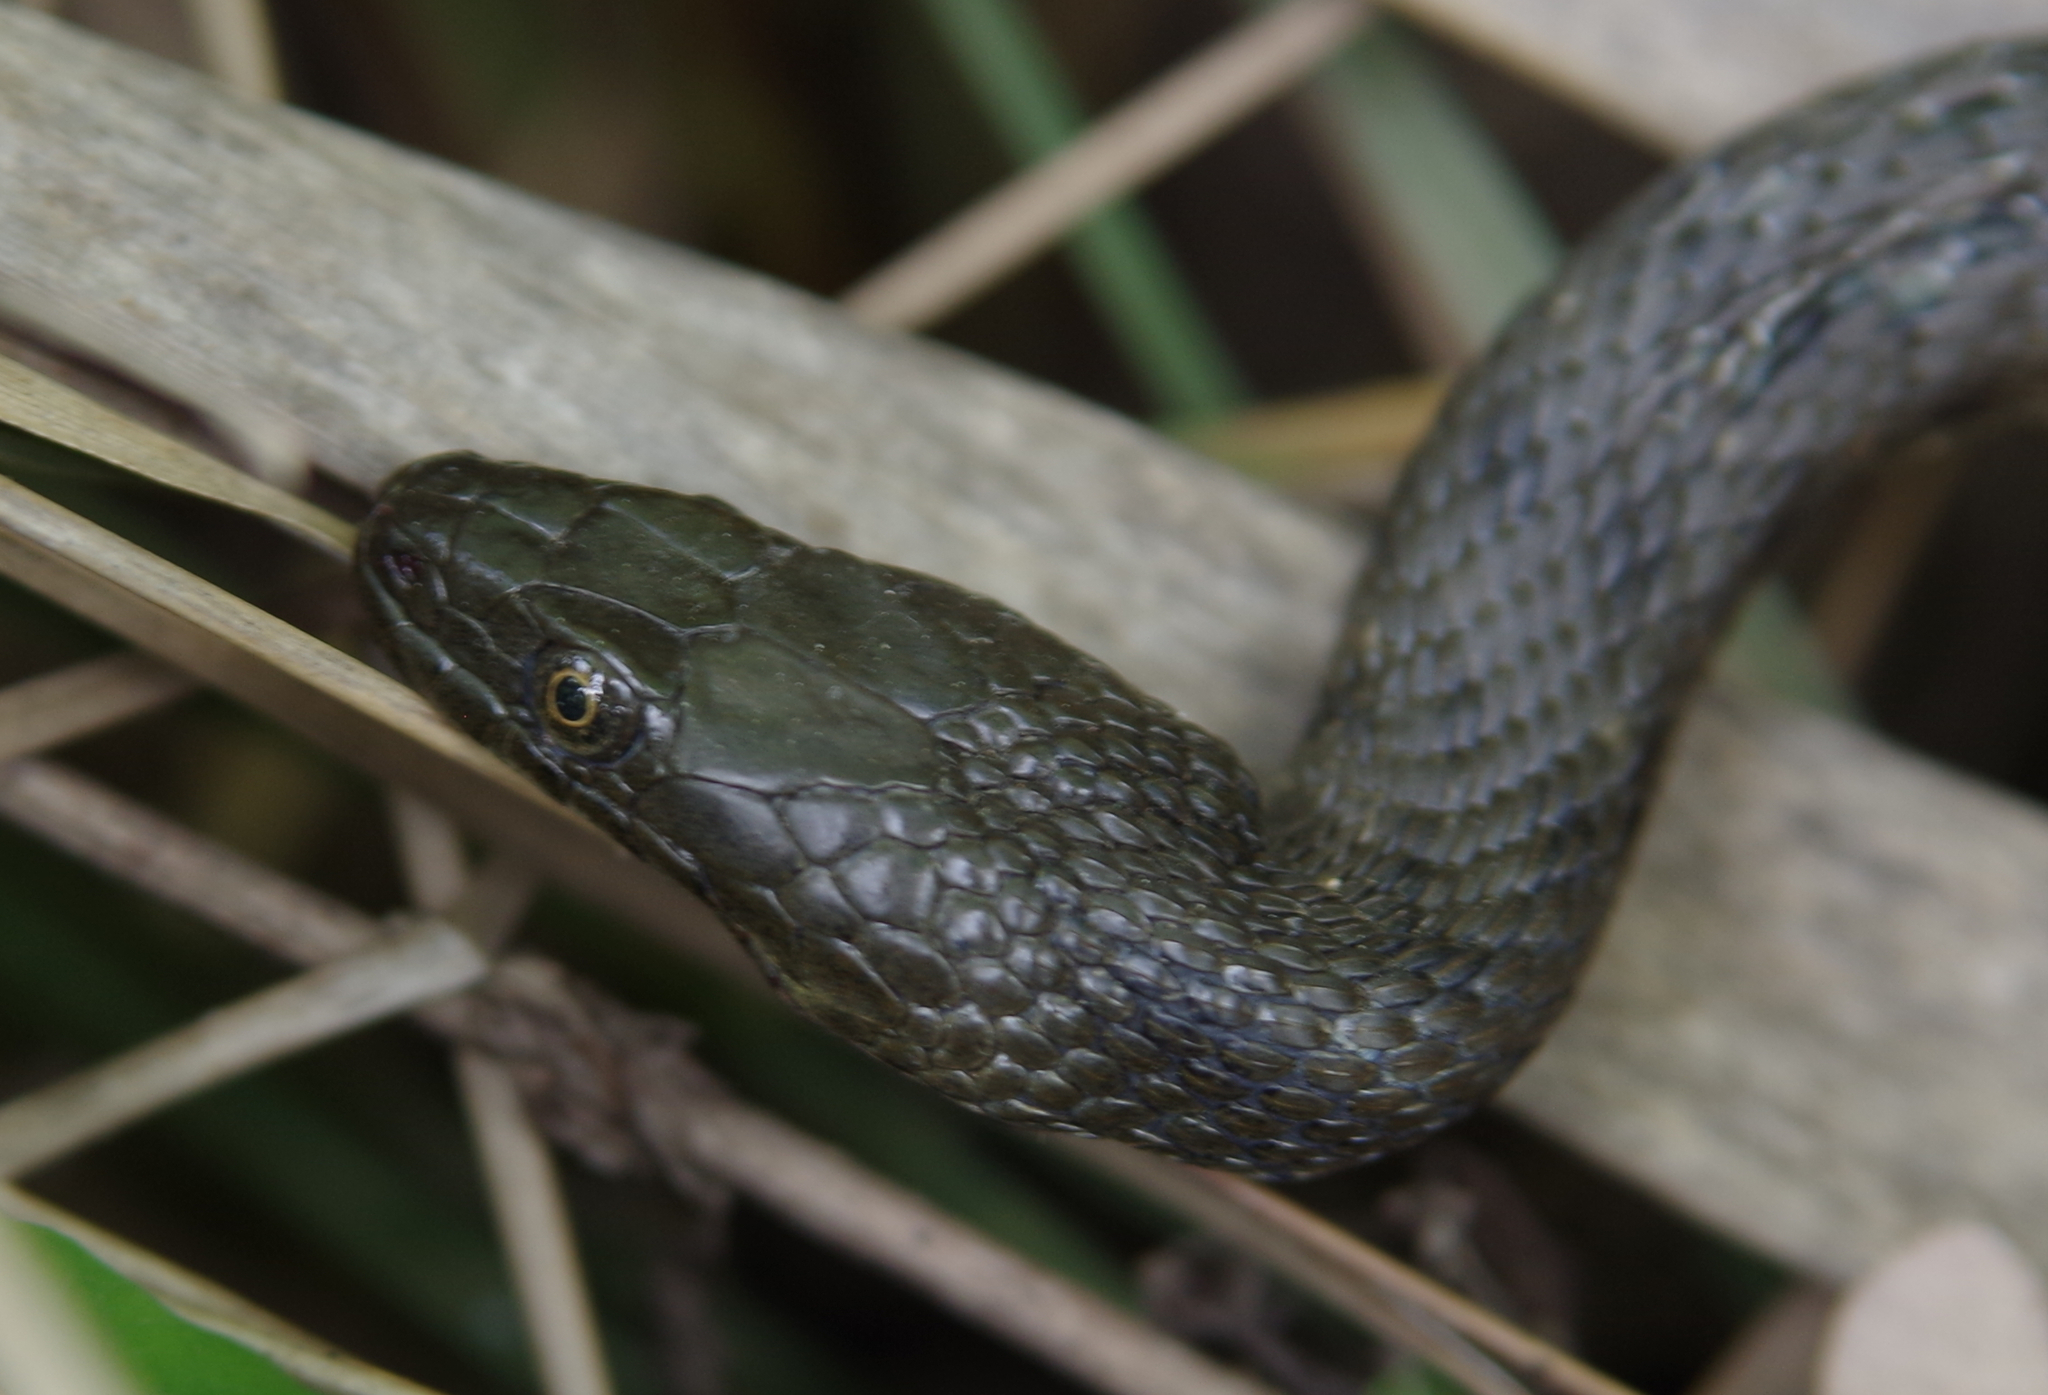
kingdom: Animalia
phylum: Chordata
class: Squamata
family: Colubridae
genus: Natrix
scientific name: Natrix tessellata
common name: Dice snake
